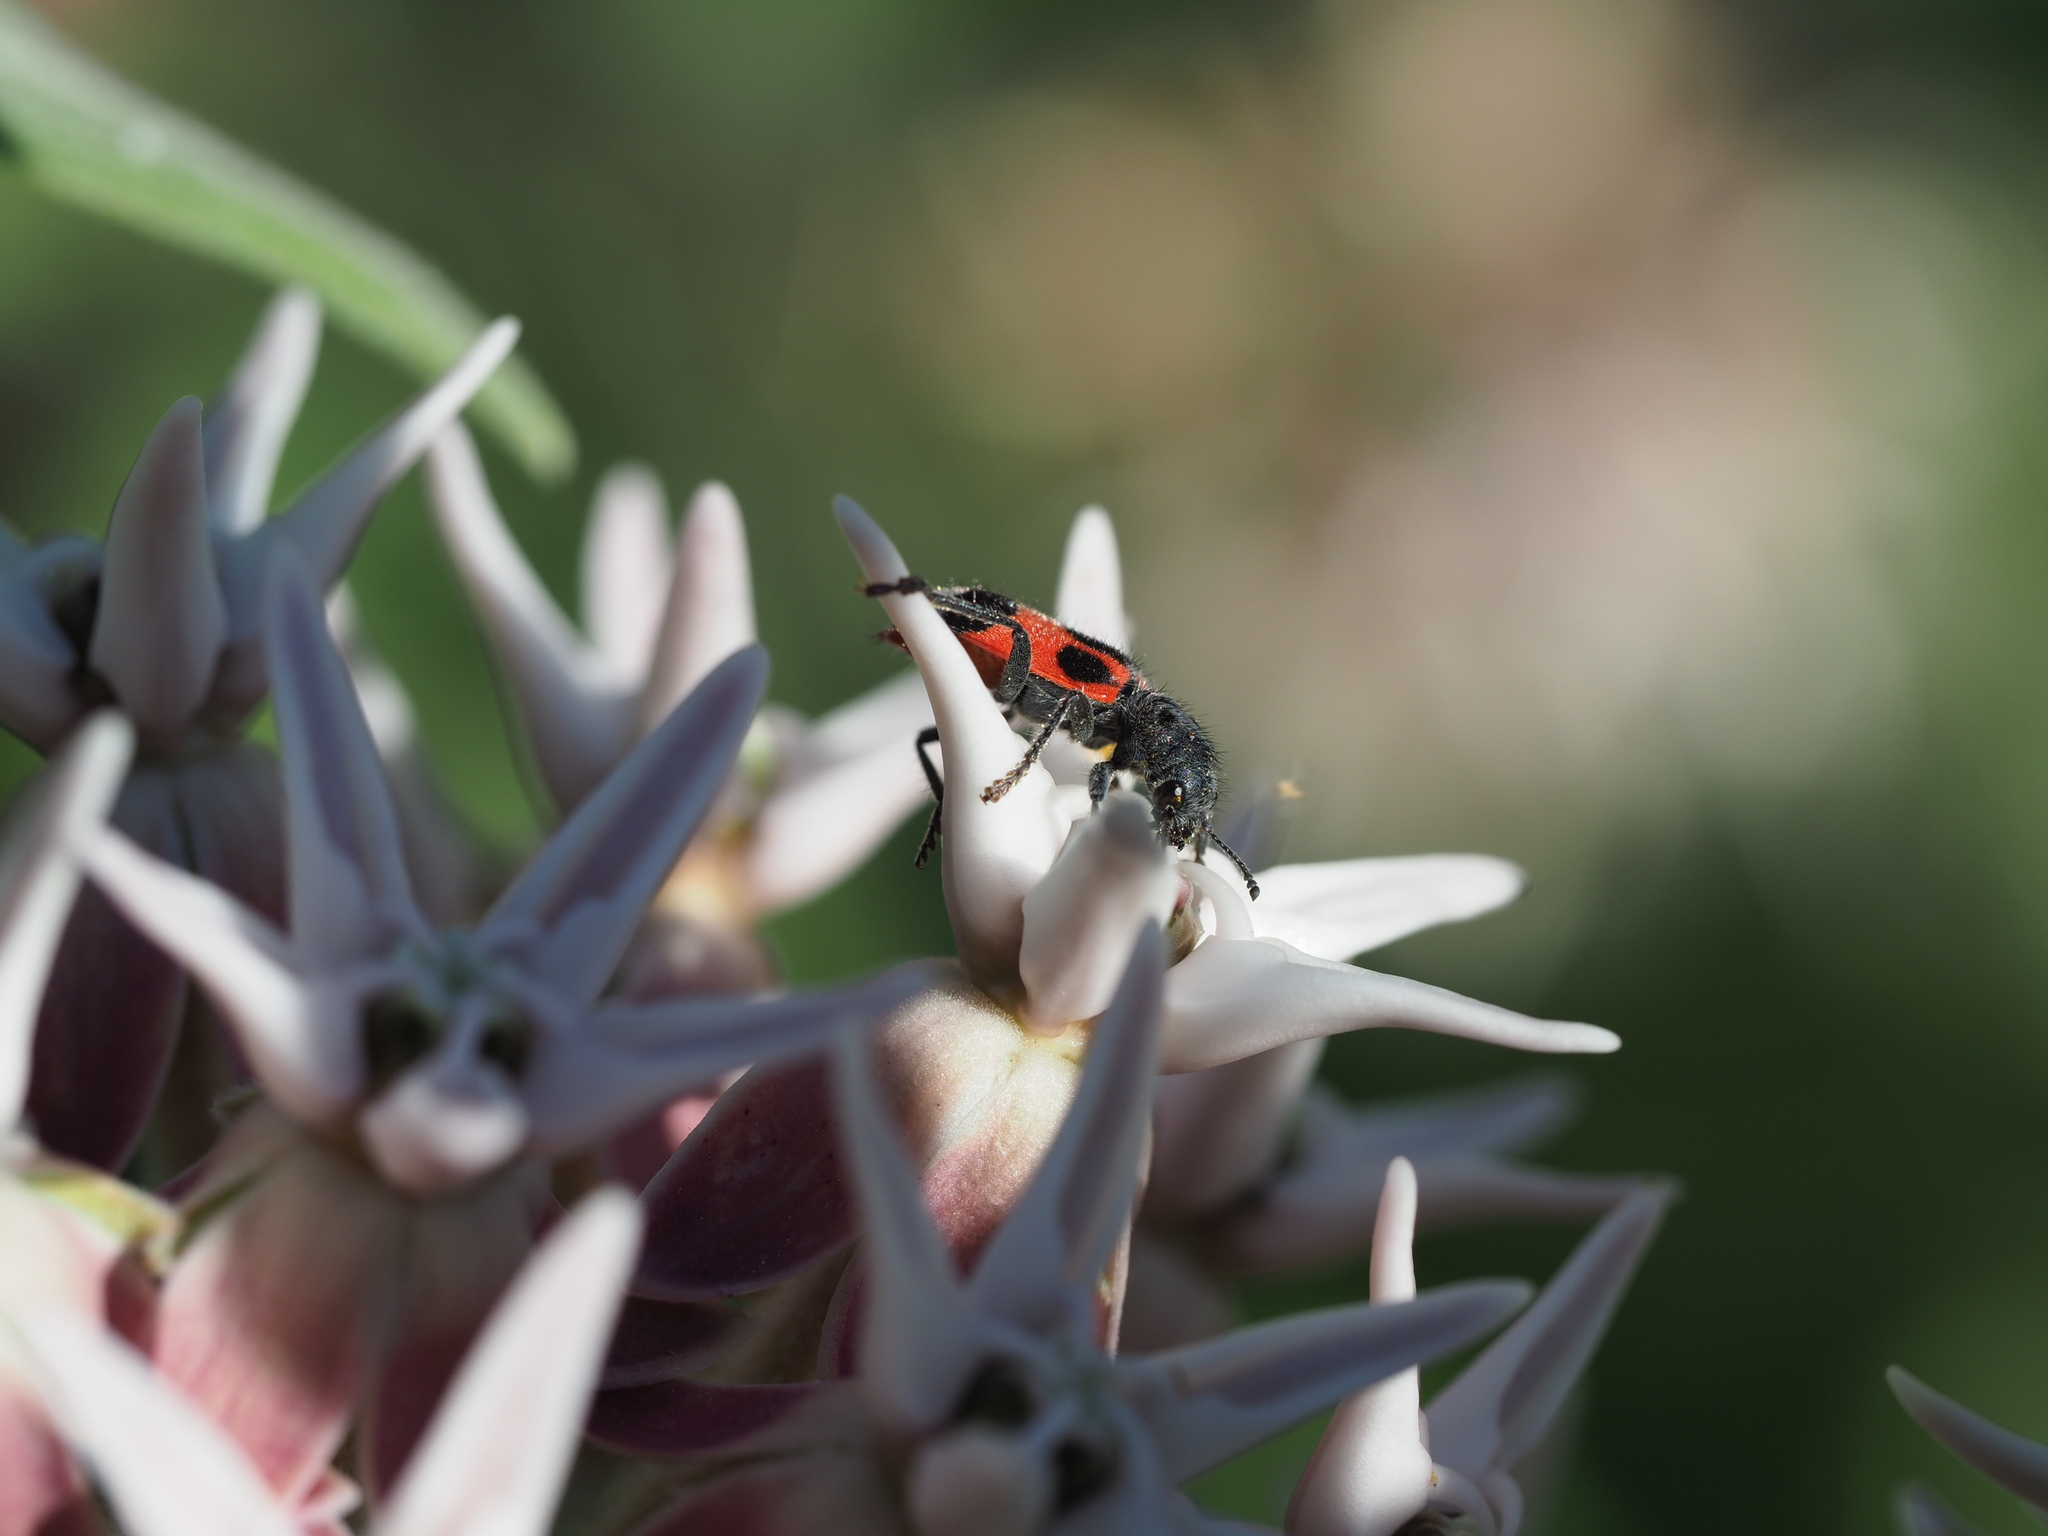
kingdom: Animalia
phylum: Arthropoda
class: Insecta
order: Coleoptera
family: Cleridae
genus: Enoclerus
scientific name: Enoclerus eximius
